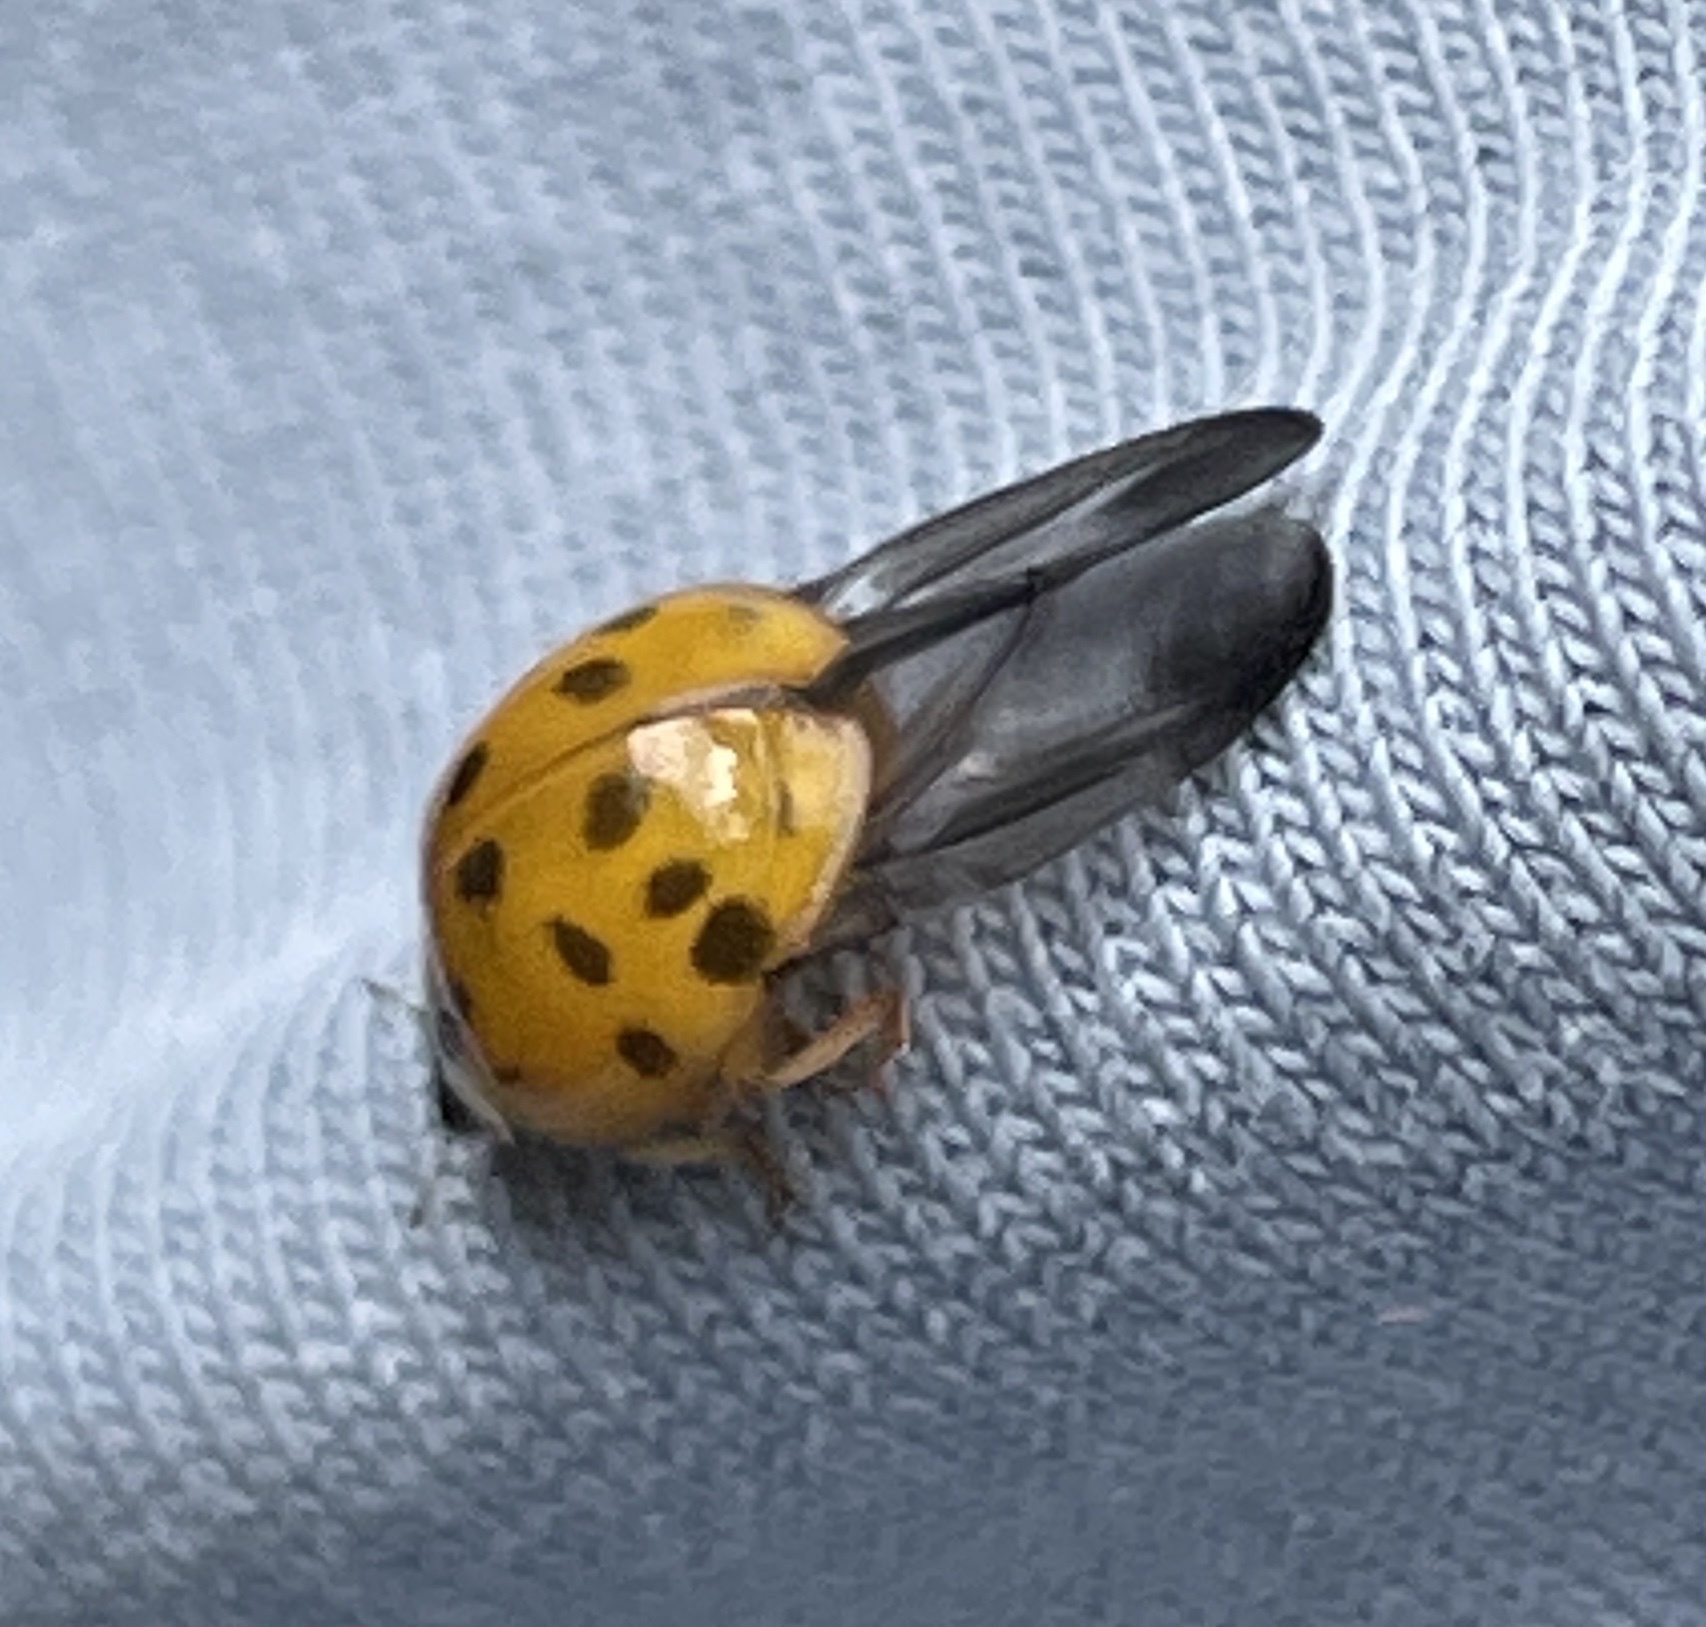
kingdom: Animalia
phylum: Arthropoda
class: Insecta
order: Coleoptera
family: Coccinellidae
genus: Harmonia
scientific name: Harmonia axyridis
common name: Harlequin ladybird
